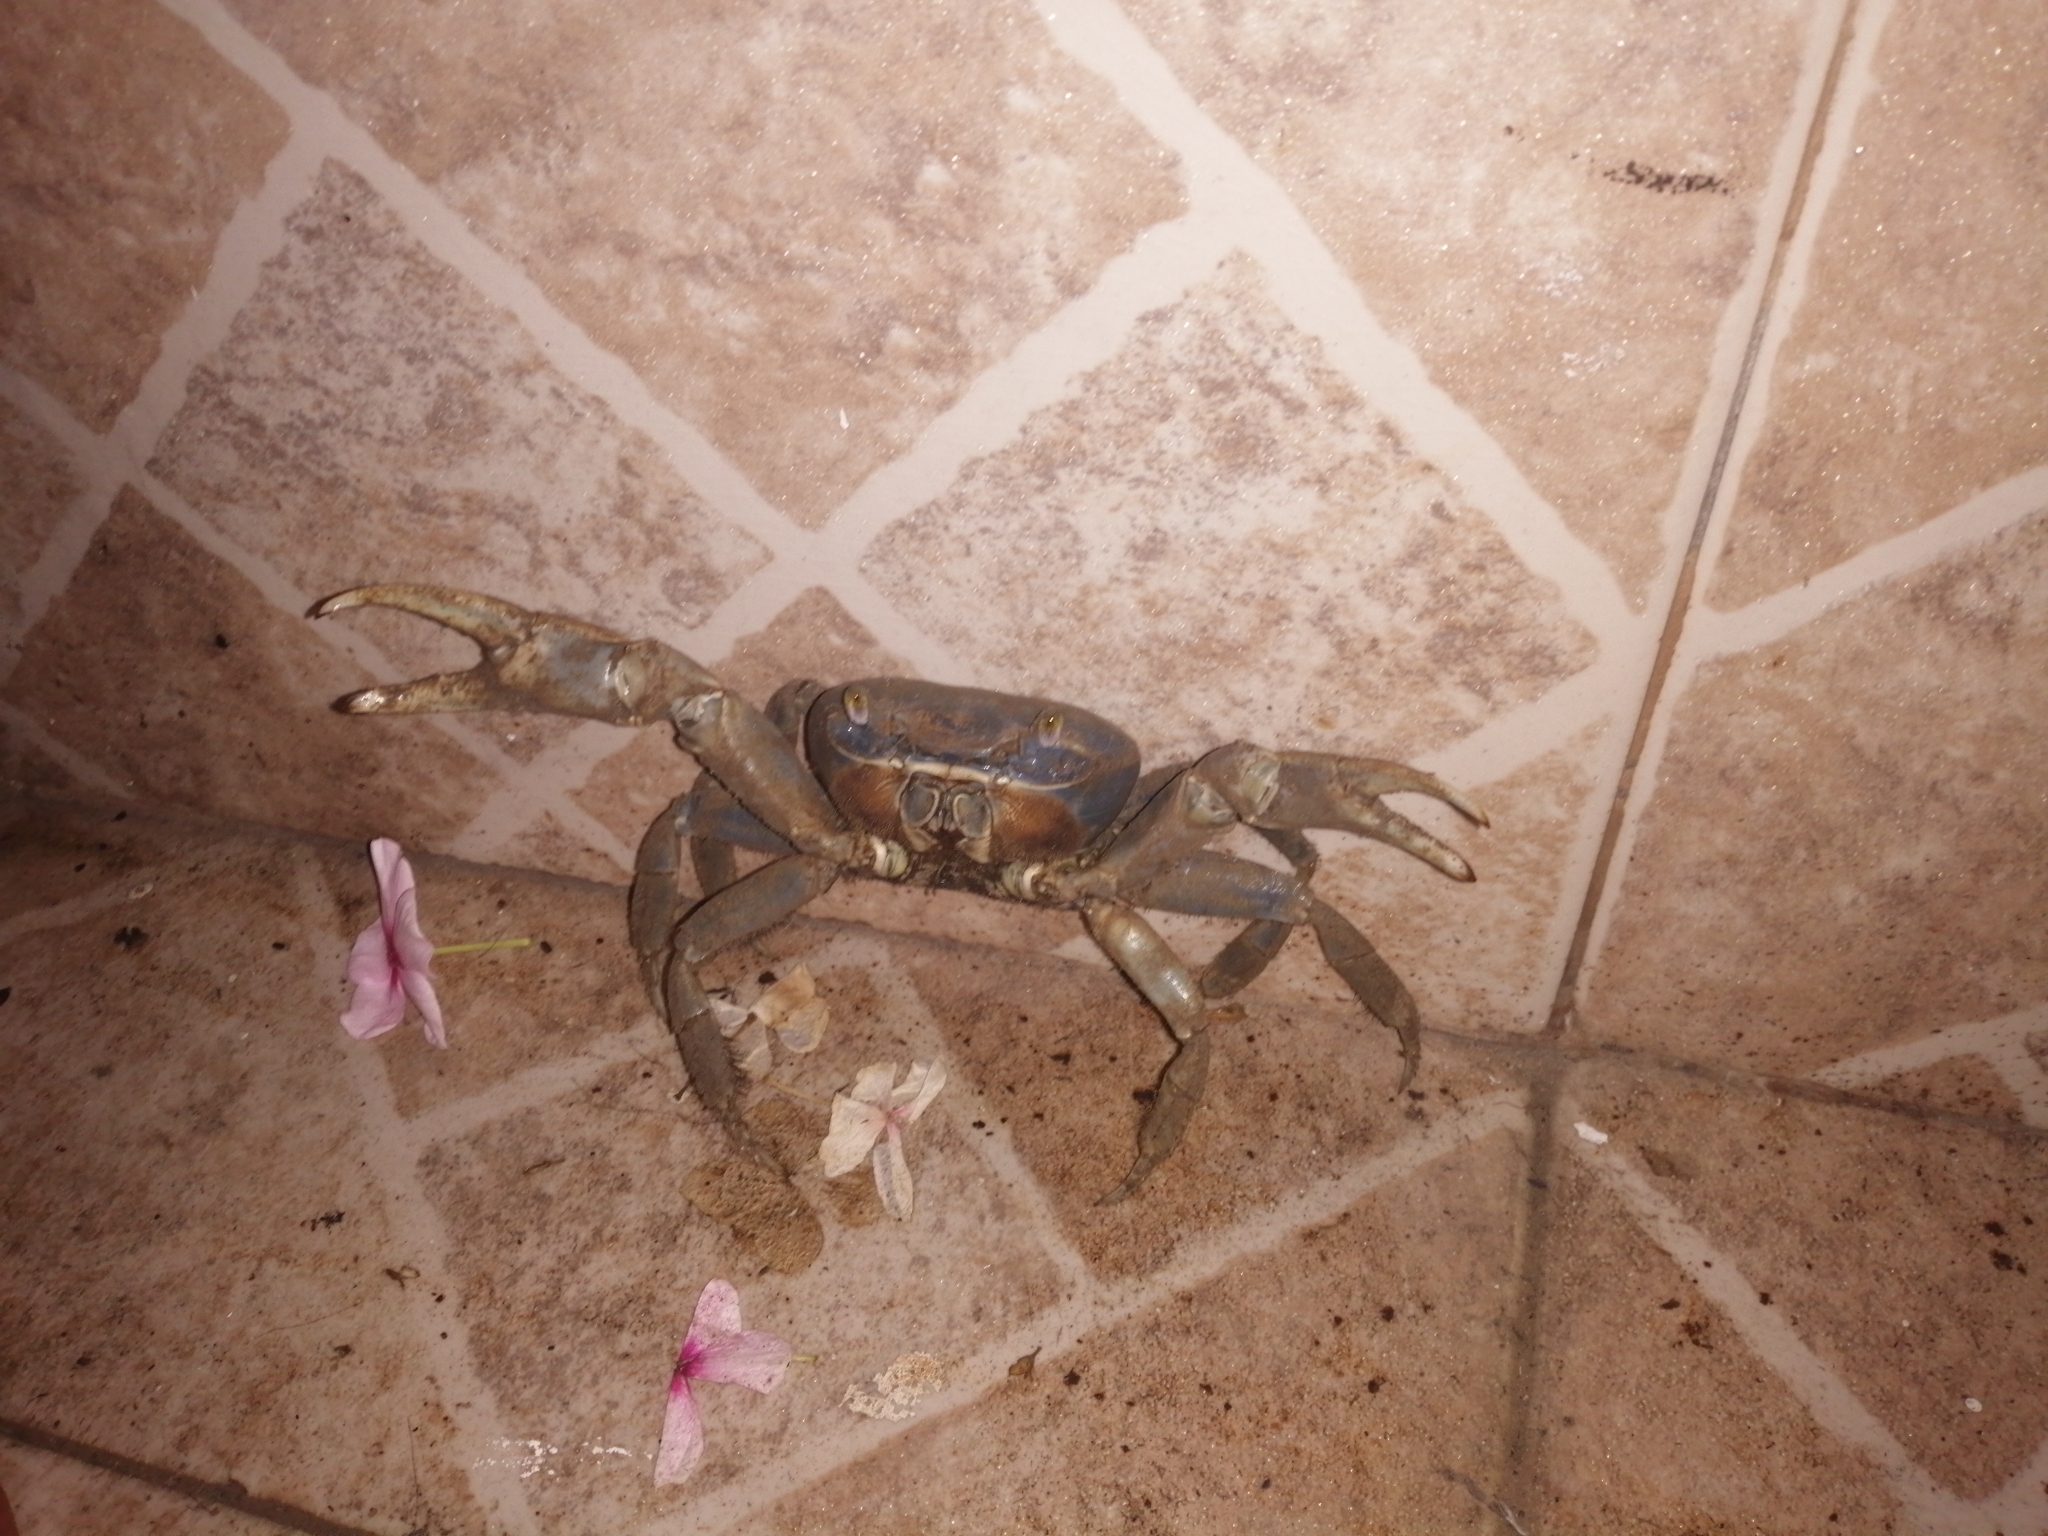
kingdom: Animalia
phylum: Arthropoda
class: Malacostraca
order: Decapoda
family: Gecarcinidae
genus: Cardisoma
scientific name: Cardisoma guanhumi
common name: Great land crab
